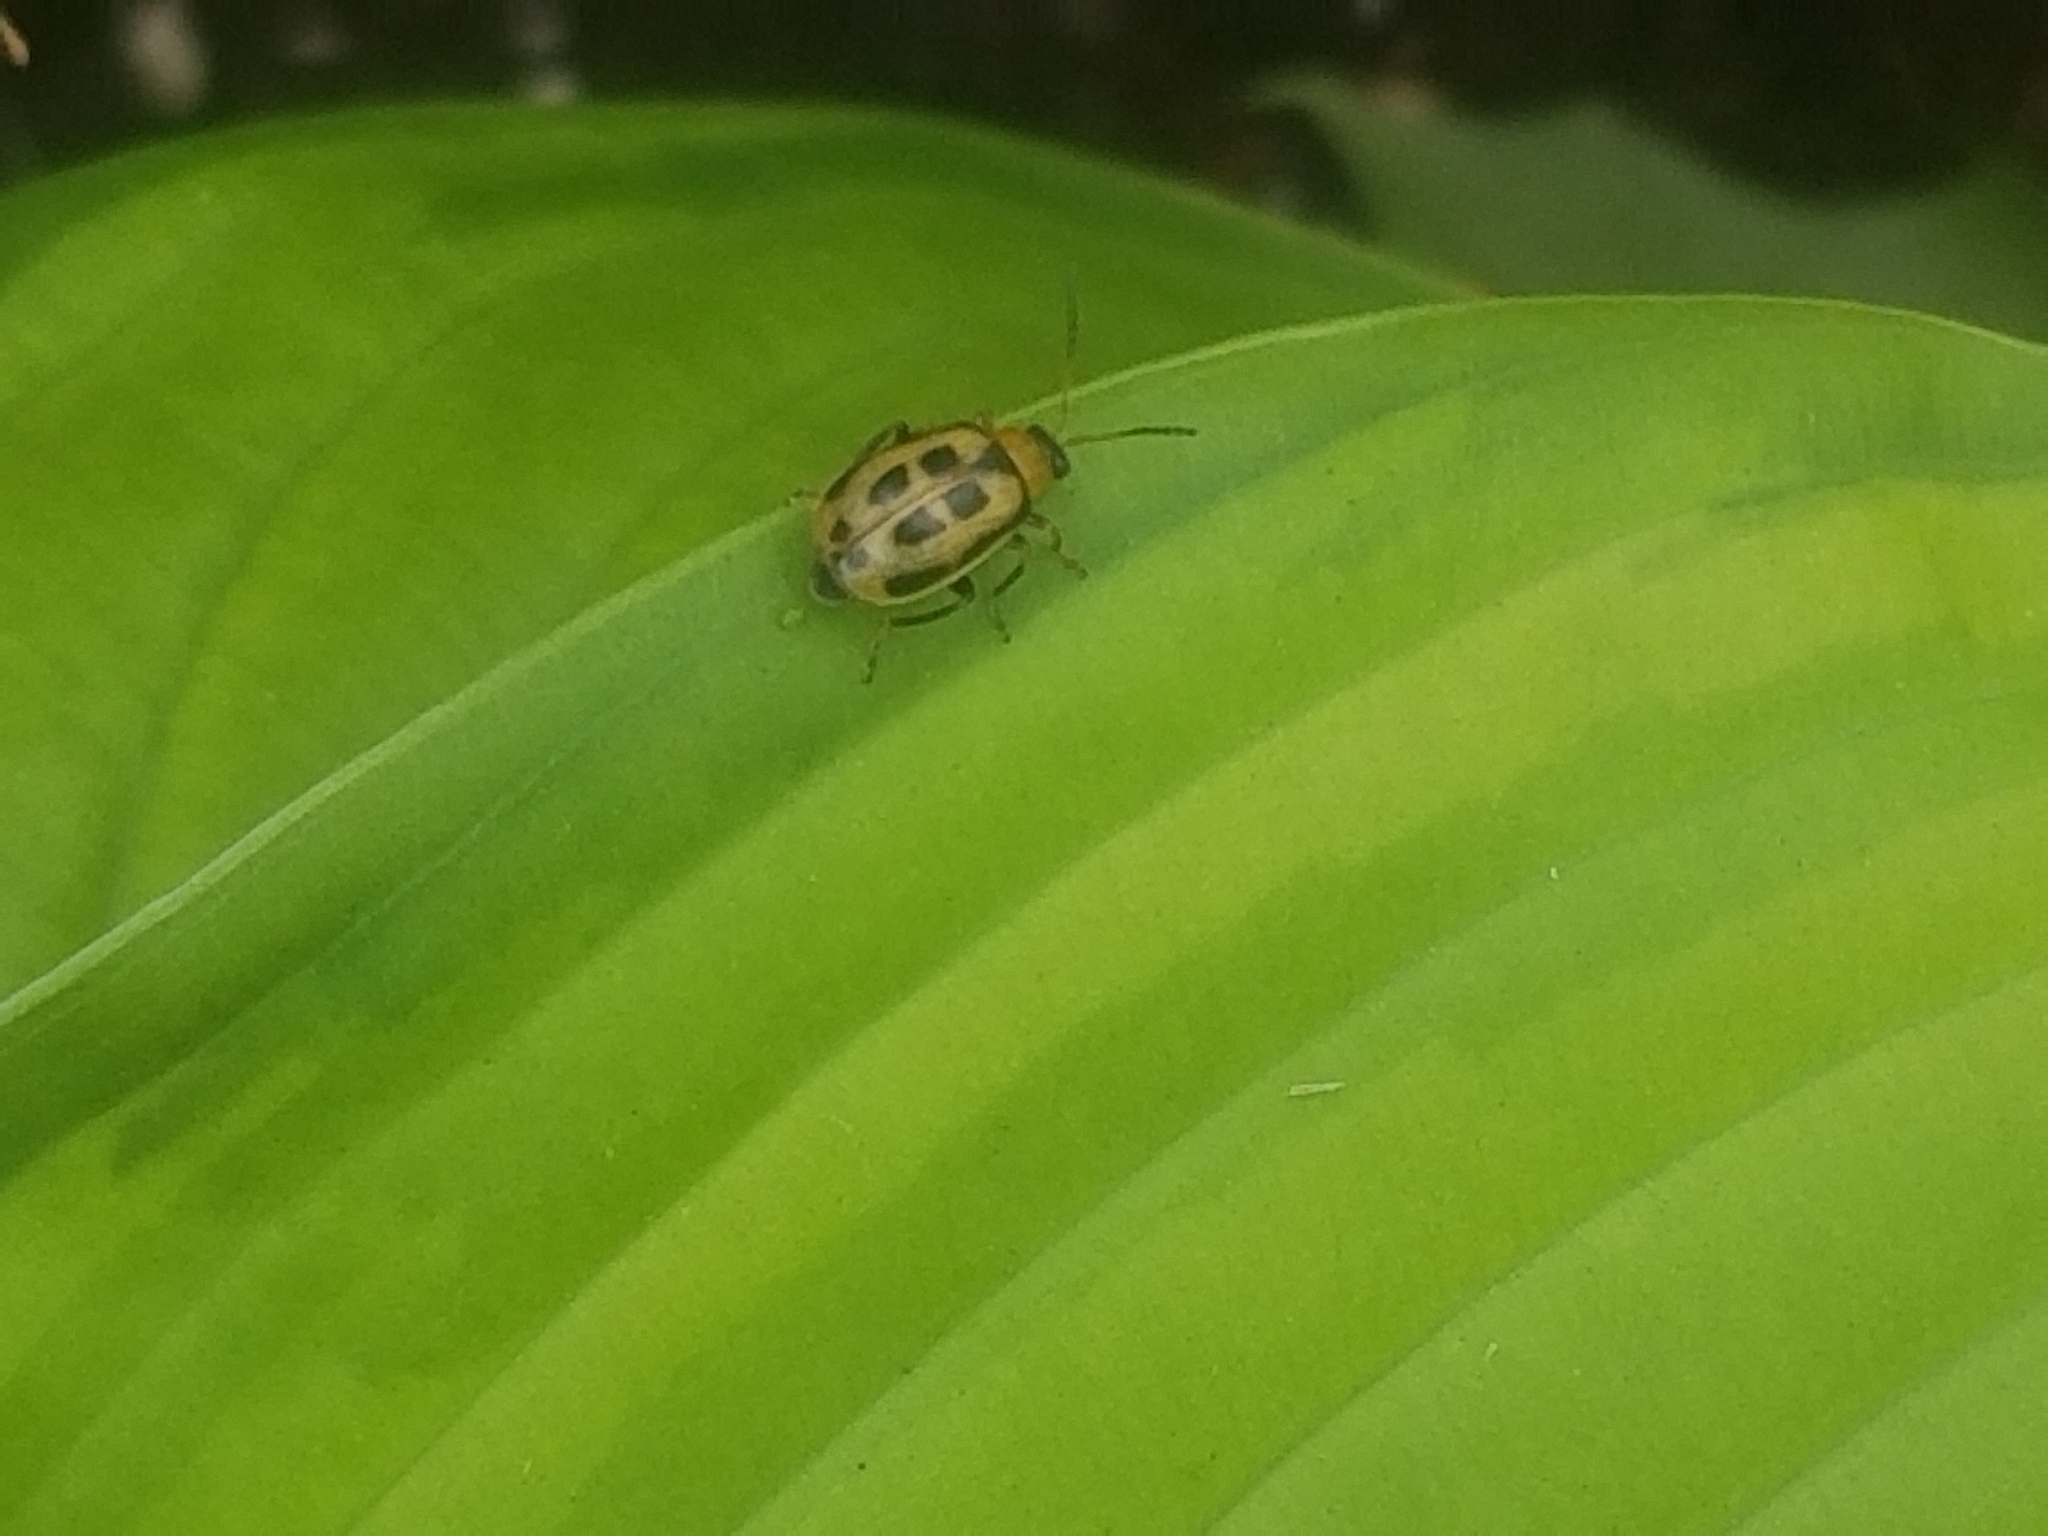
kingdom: Animalia
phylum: Arthropoda
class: Insecta
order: Coleoptera
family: Chrysomelidae
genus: Cerotoma
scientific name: Cerotoma trifurcata
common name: Bean leaf beetle
